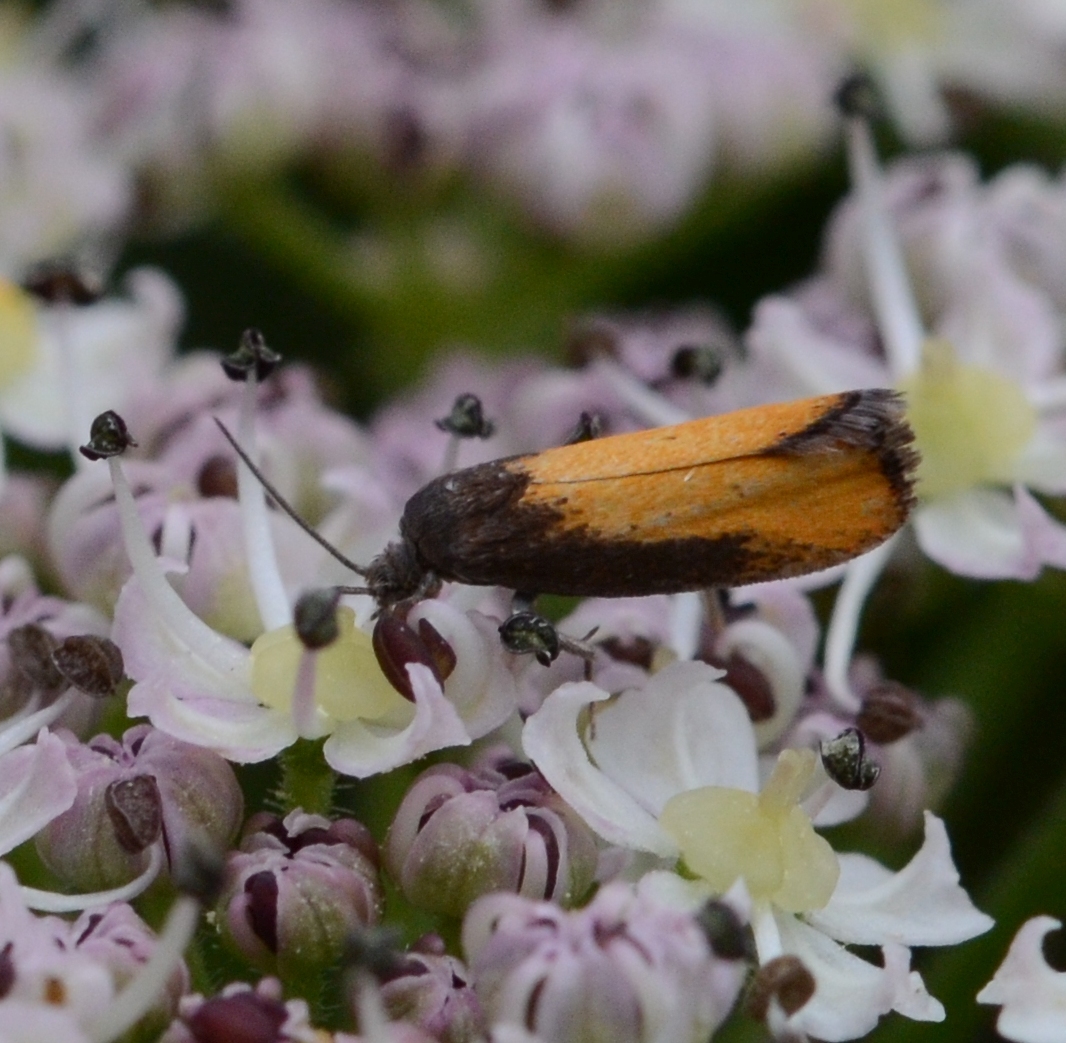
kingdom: Animalia
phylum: Arthropoda
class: Insecta
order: Lepidoptera
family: Tortricidae
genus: Pammene
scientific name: Pammene aurana
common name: Orange-spot piercer
